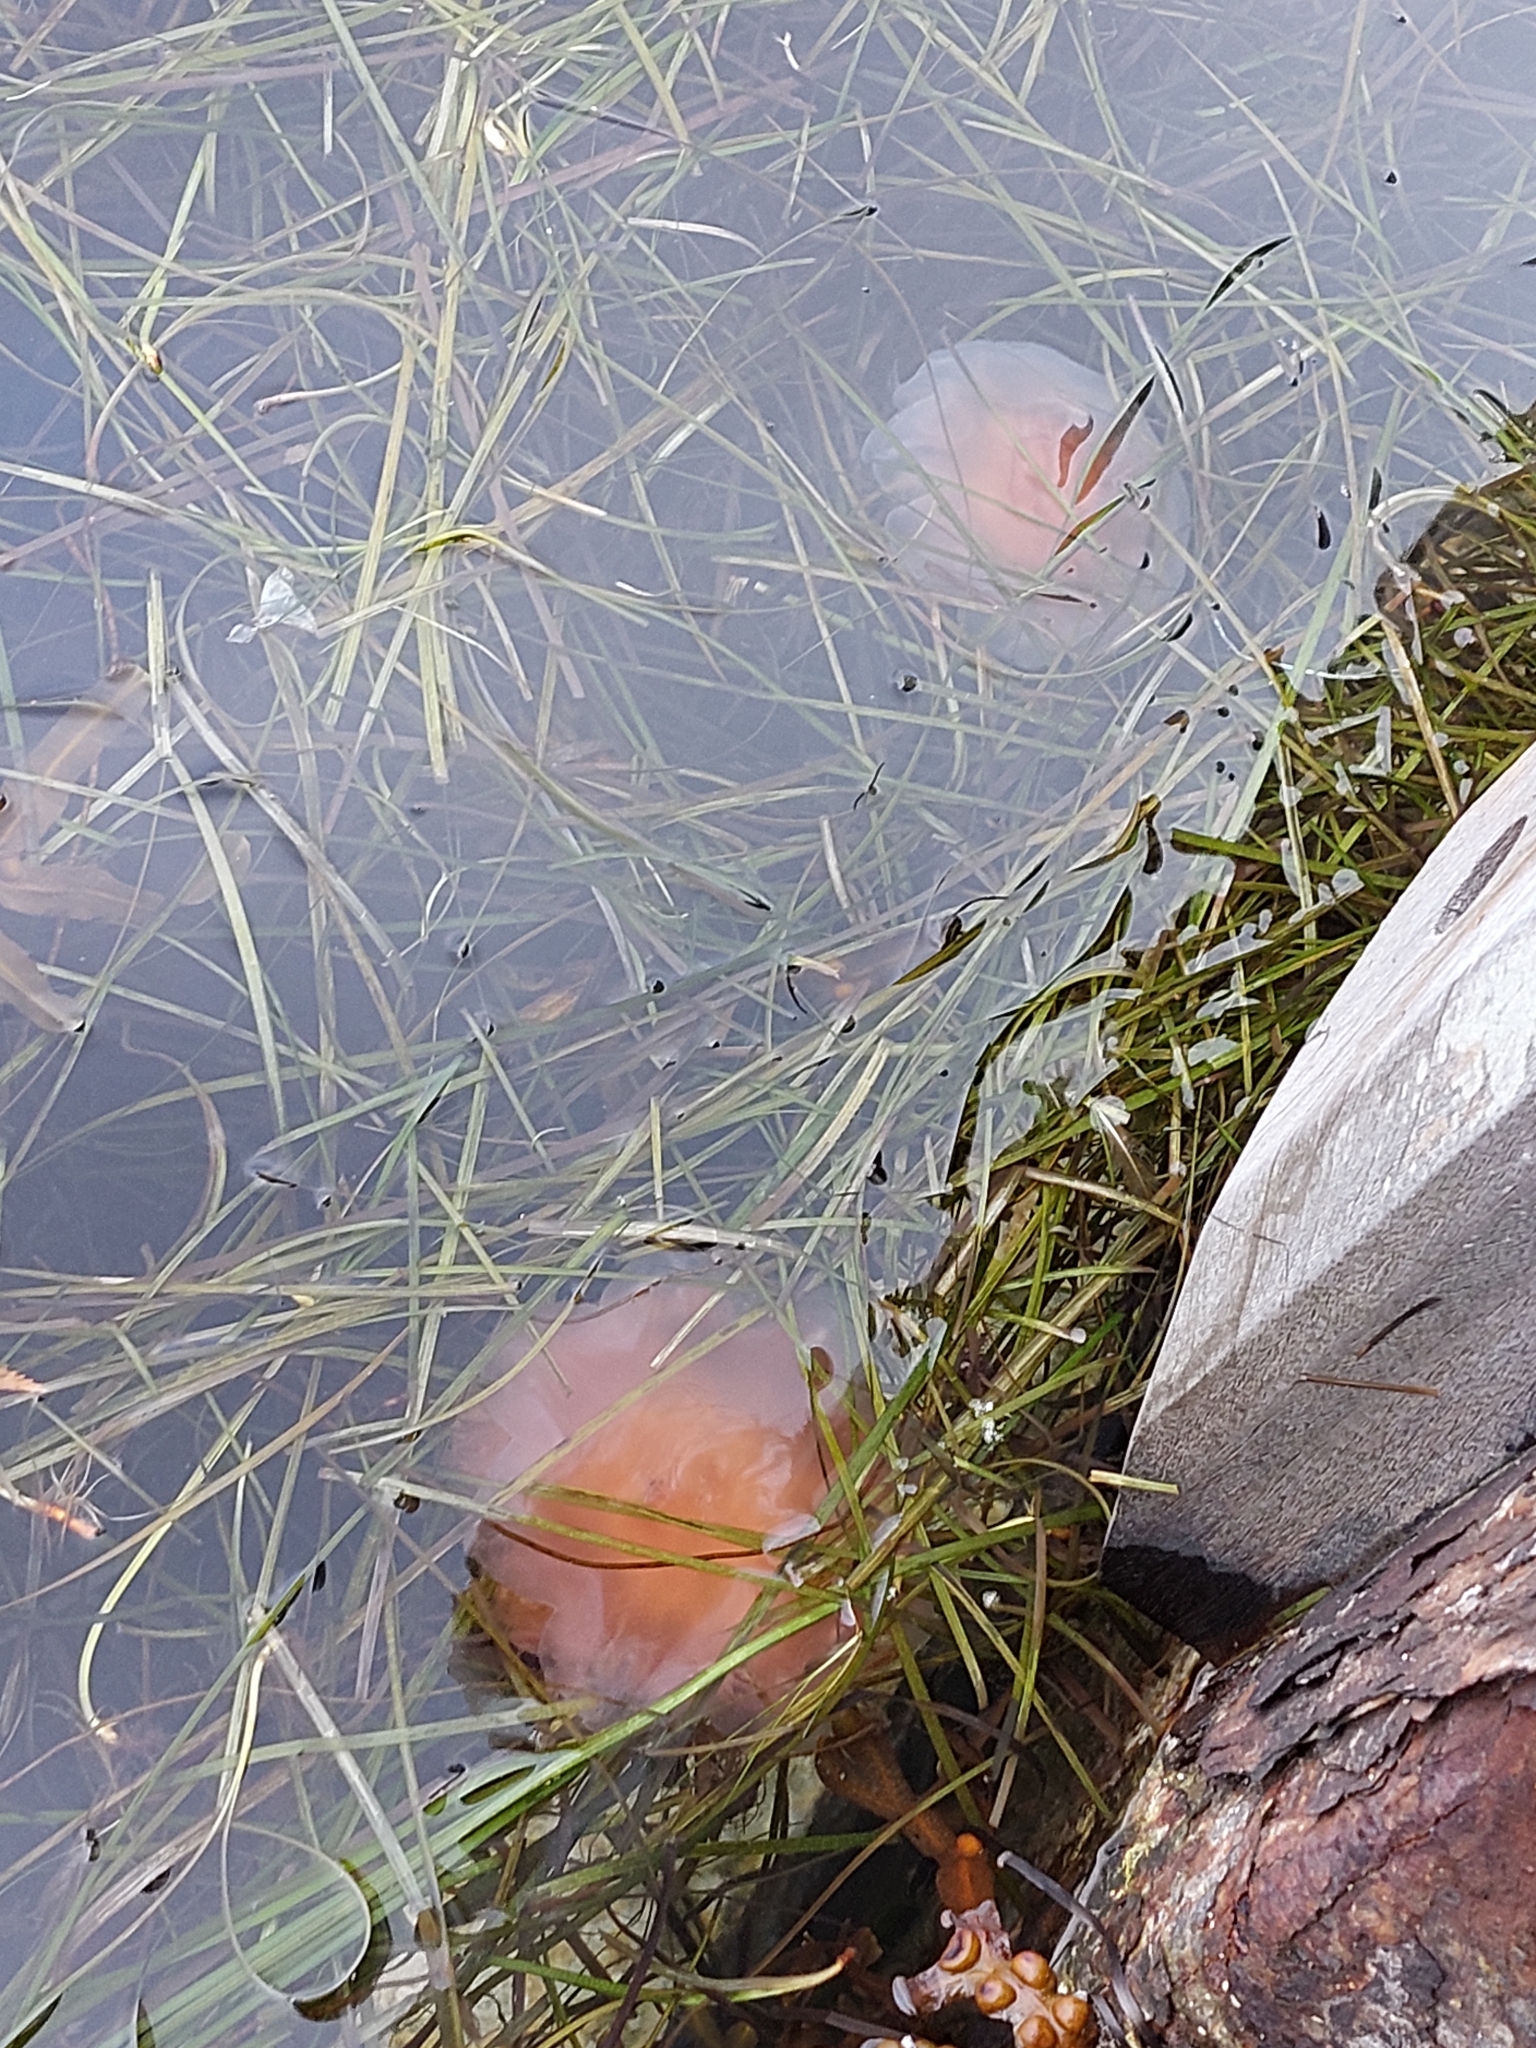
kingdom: Animalia
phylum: Cnidaria
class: Scyphozoa
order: Semaeostomeae
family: Cyaneidae
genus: Cyanea
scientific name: Cyanea capillata
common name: Lion's mane jellyfish
